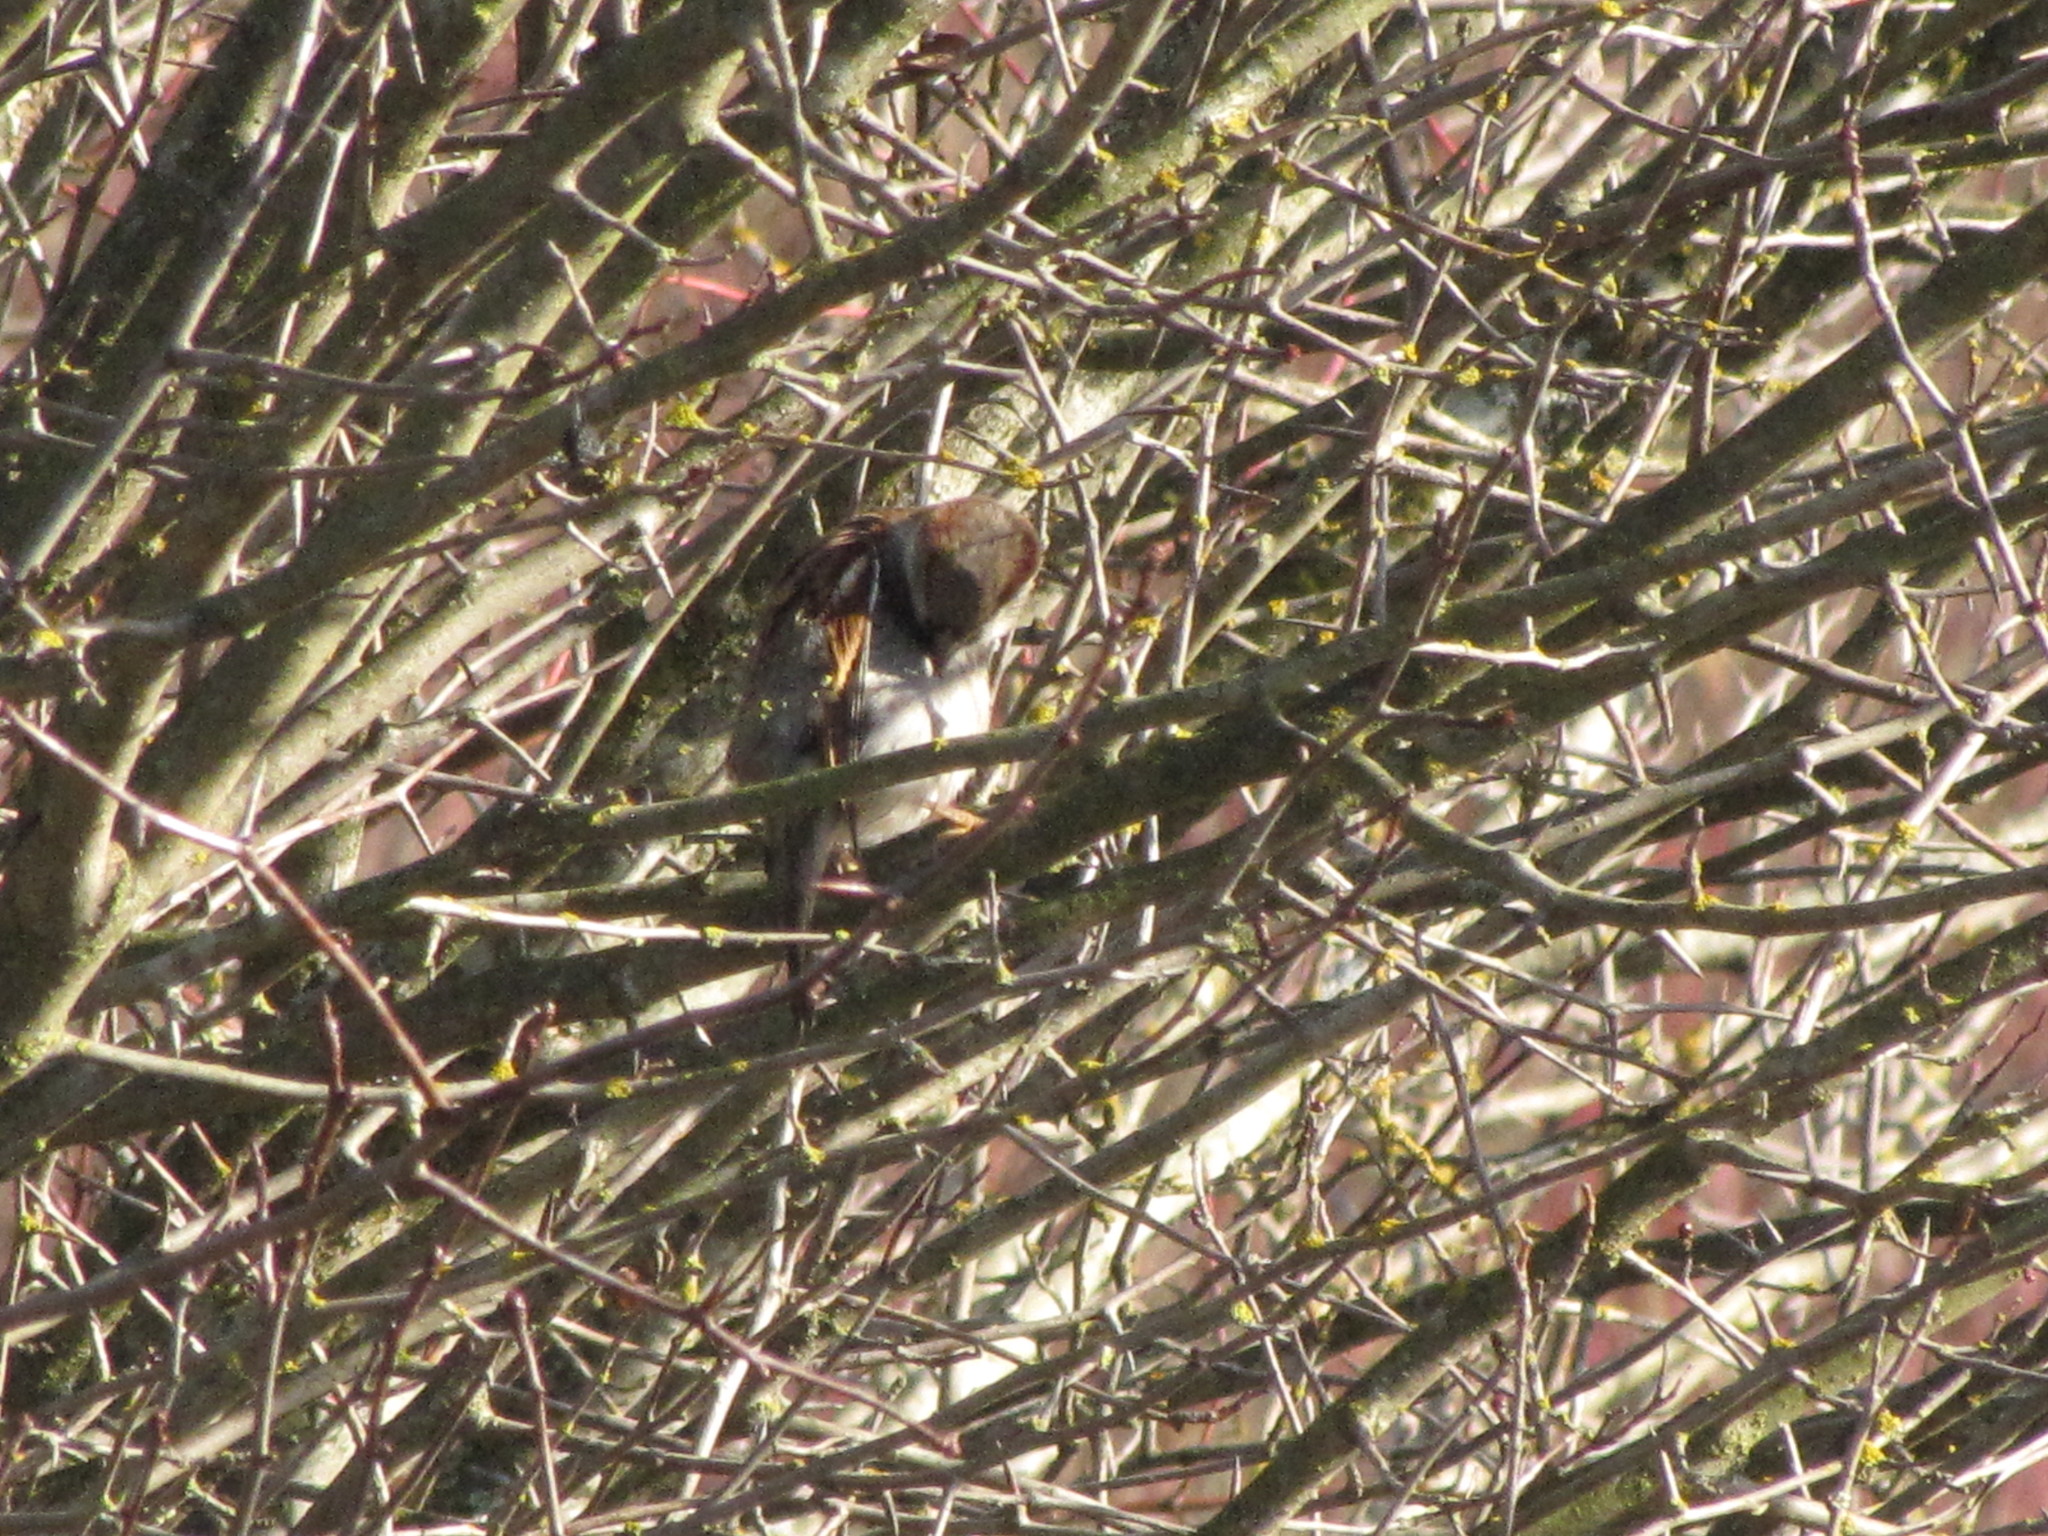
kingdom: Animalia
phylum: Chordata
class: Aves
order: Passeriformes
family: Passeridae
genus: Passer
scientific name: Passer domesticus
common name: House sparrow
